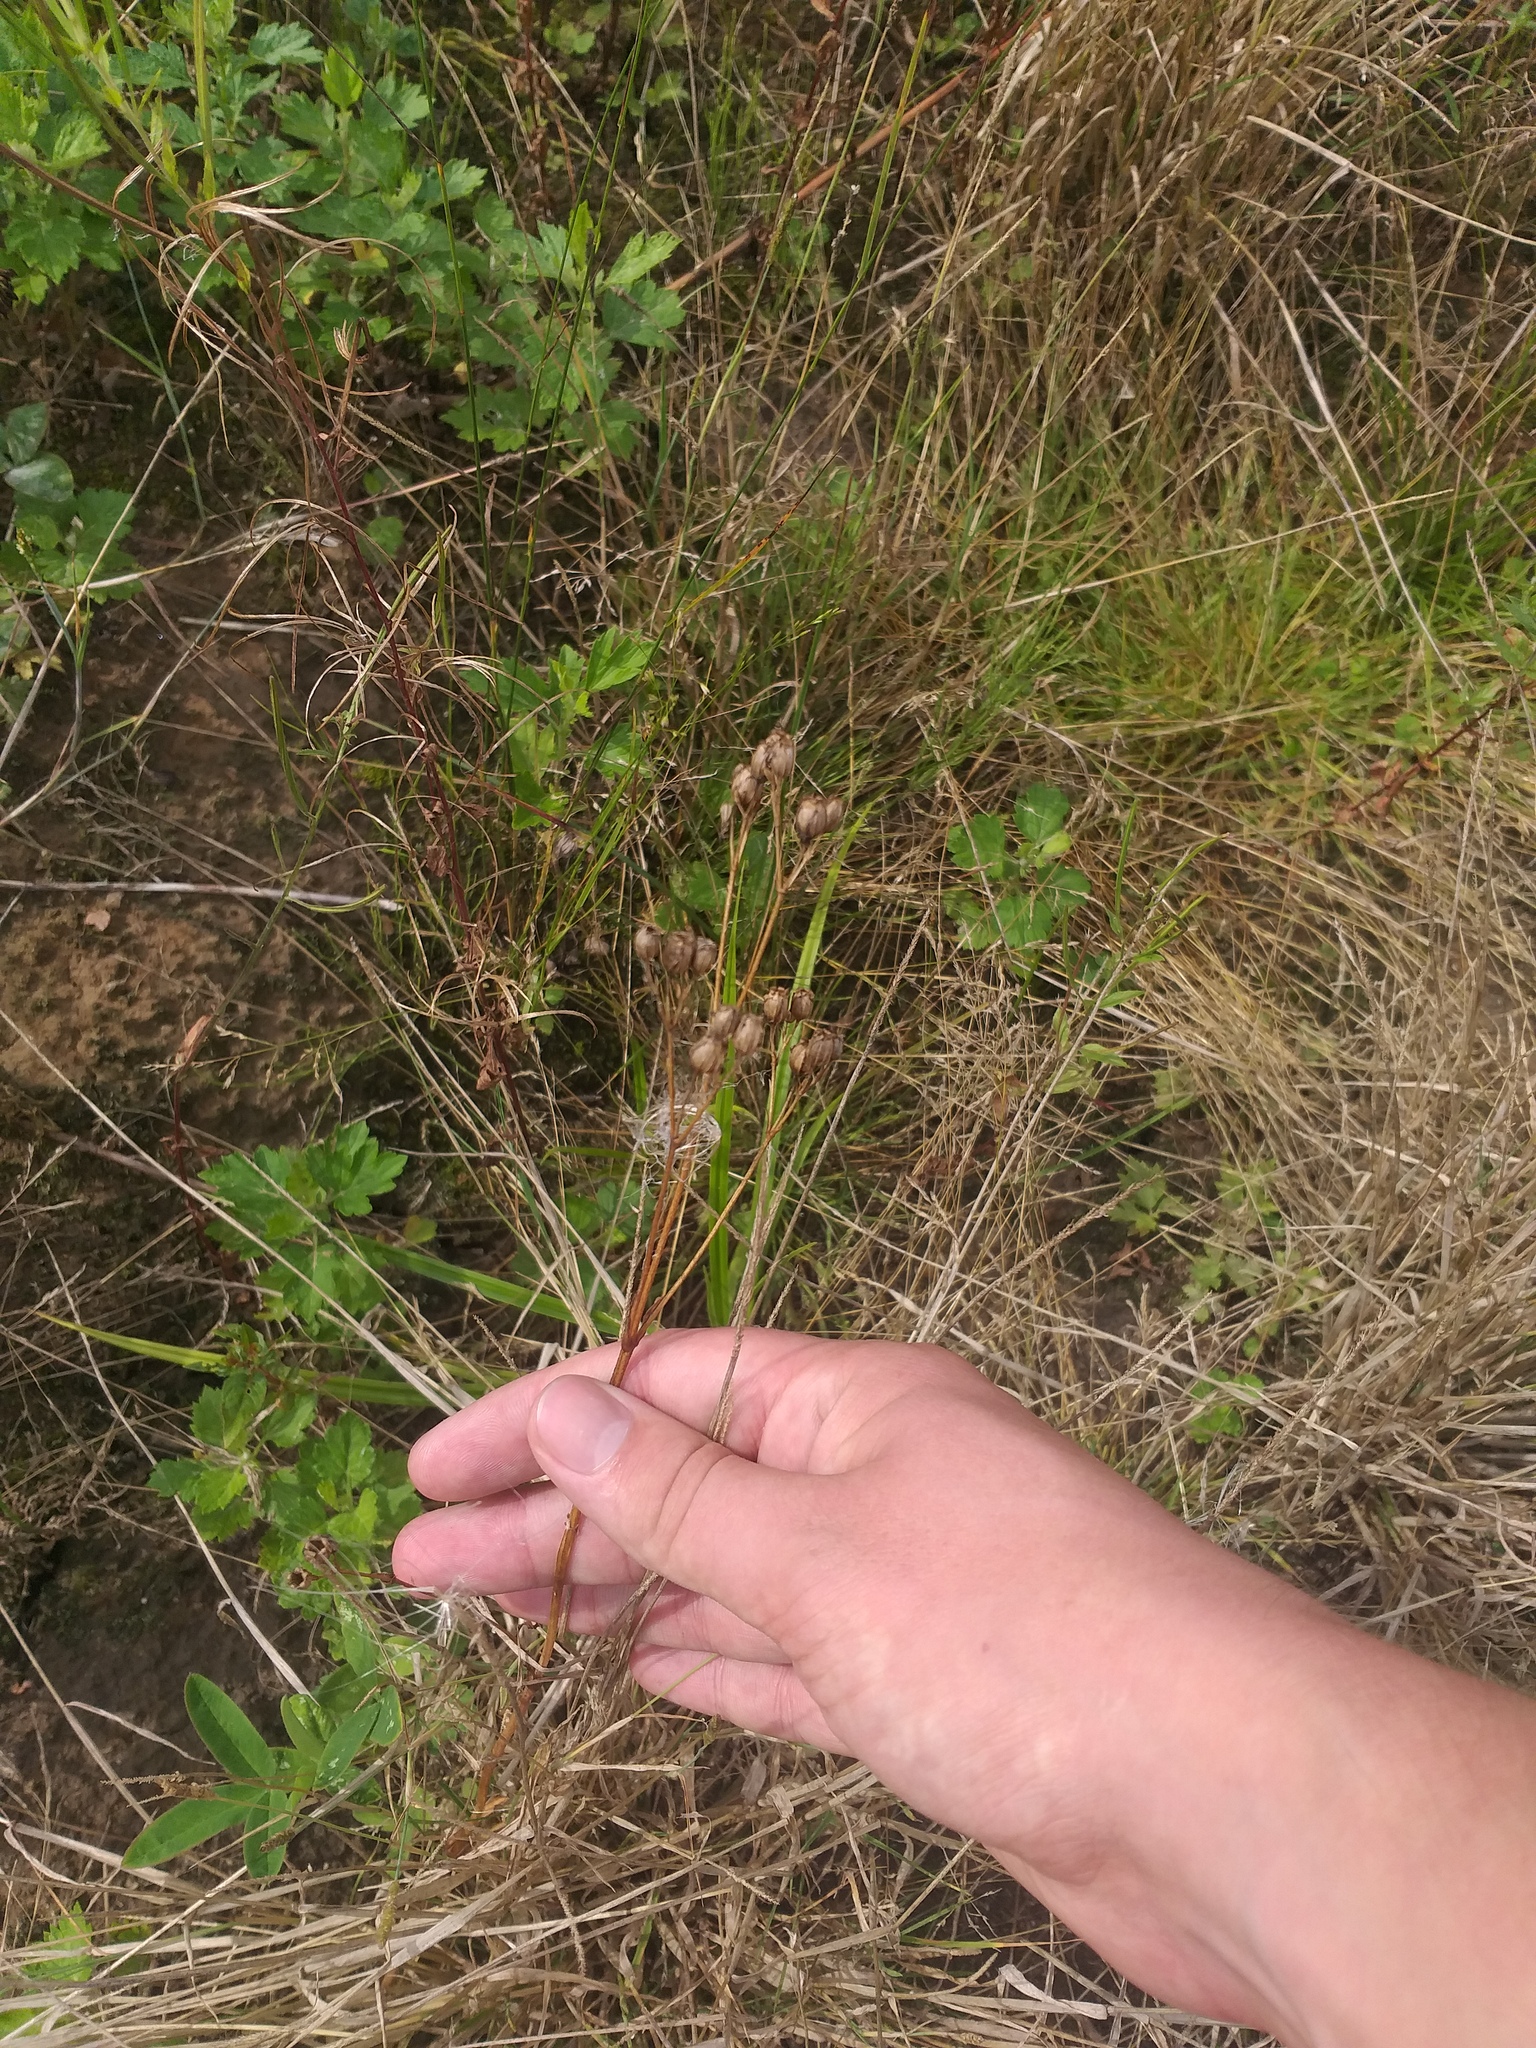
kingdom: Plantae
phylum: Tracheophyta
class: Magnoliopsida
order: Caryophyllales
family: Caryophyllaceae
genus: Silene
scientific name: Silene flos-cuculi
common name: Ragged-robin
